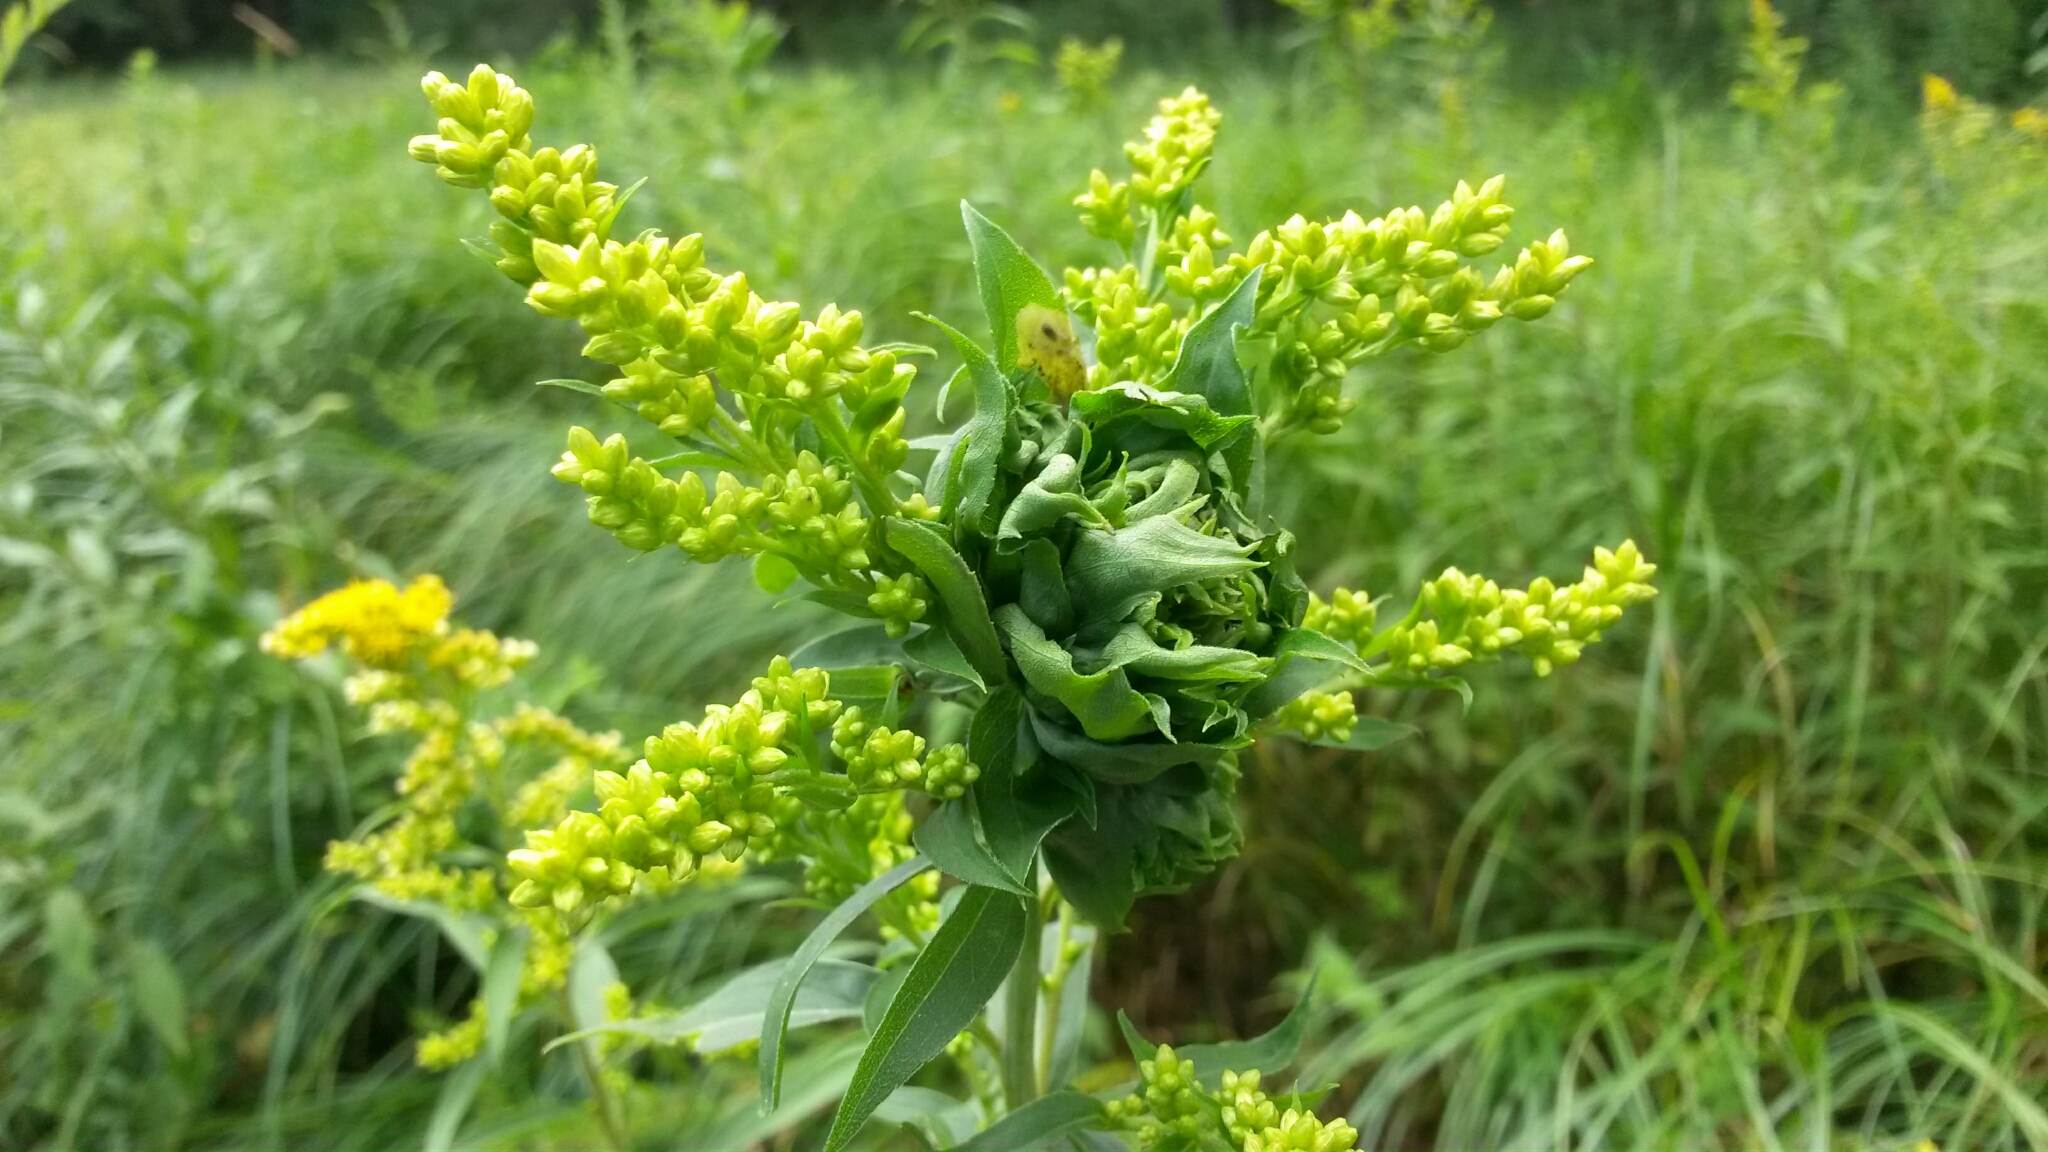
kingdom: Animalia
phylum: Arthropoda
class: Insecta
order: Diptera
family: Cecidomyiidae
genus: Rhopalomyia
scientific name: Rhopalomyia solidaginis
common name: Goldenrod bunch gall midge
